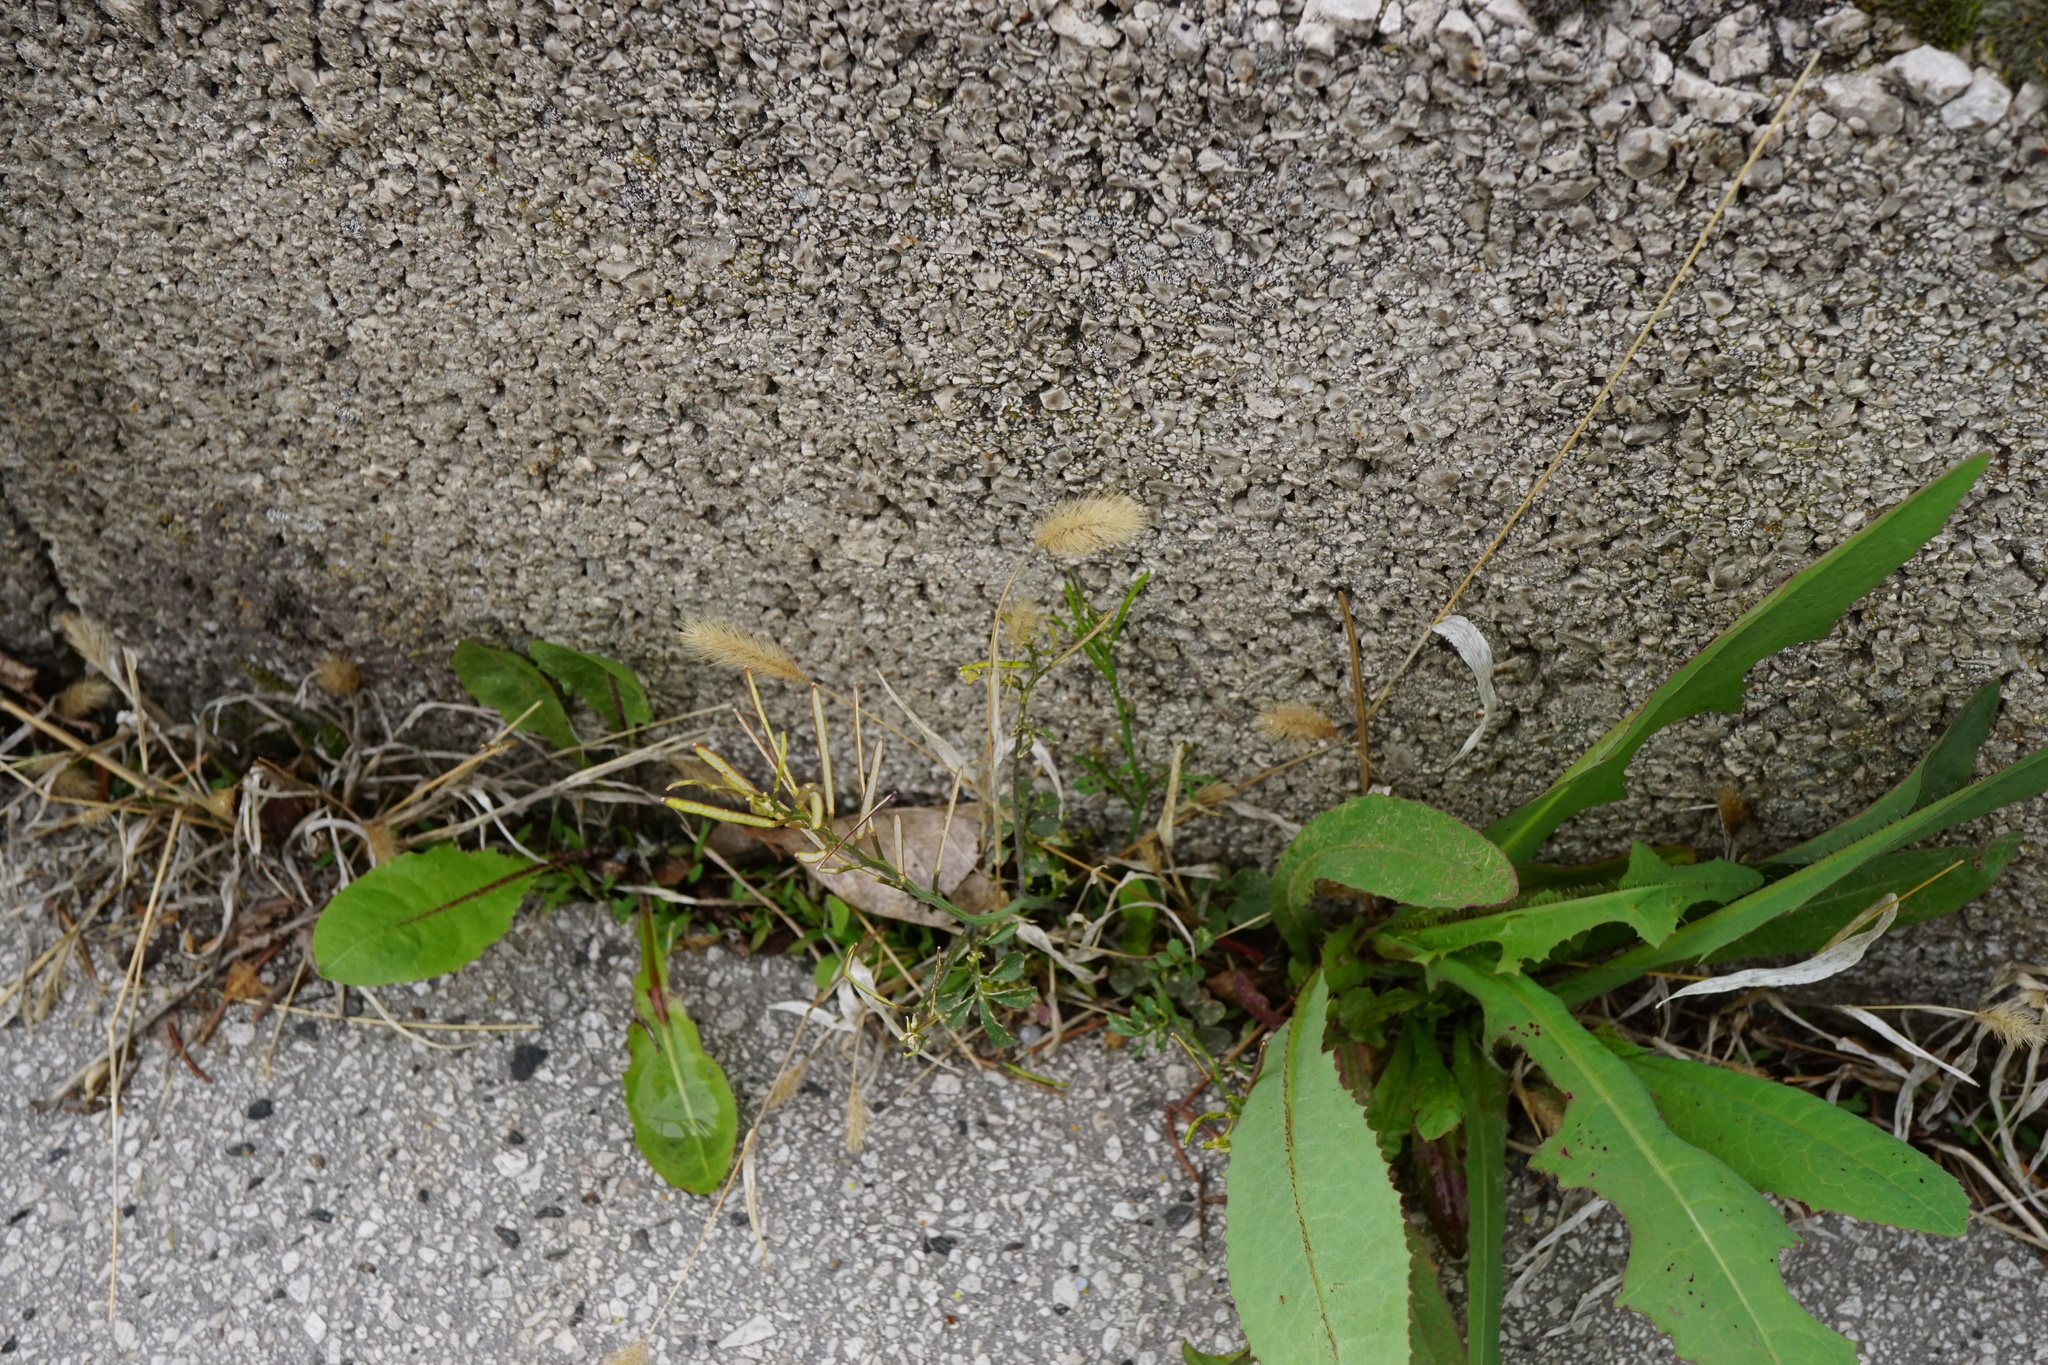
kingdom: Plantae
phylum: Tracheophyta
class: Liliopsida
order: Poales
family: Poaceae
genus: Setaria
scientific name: Setaria viridis
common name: Green bristlegrass
